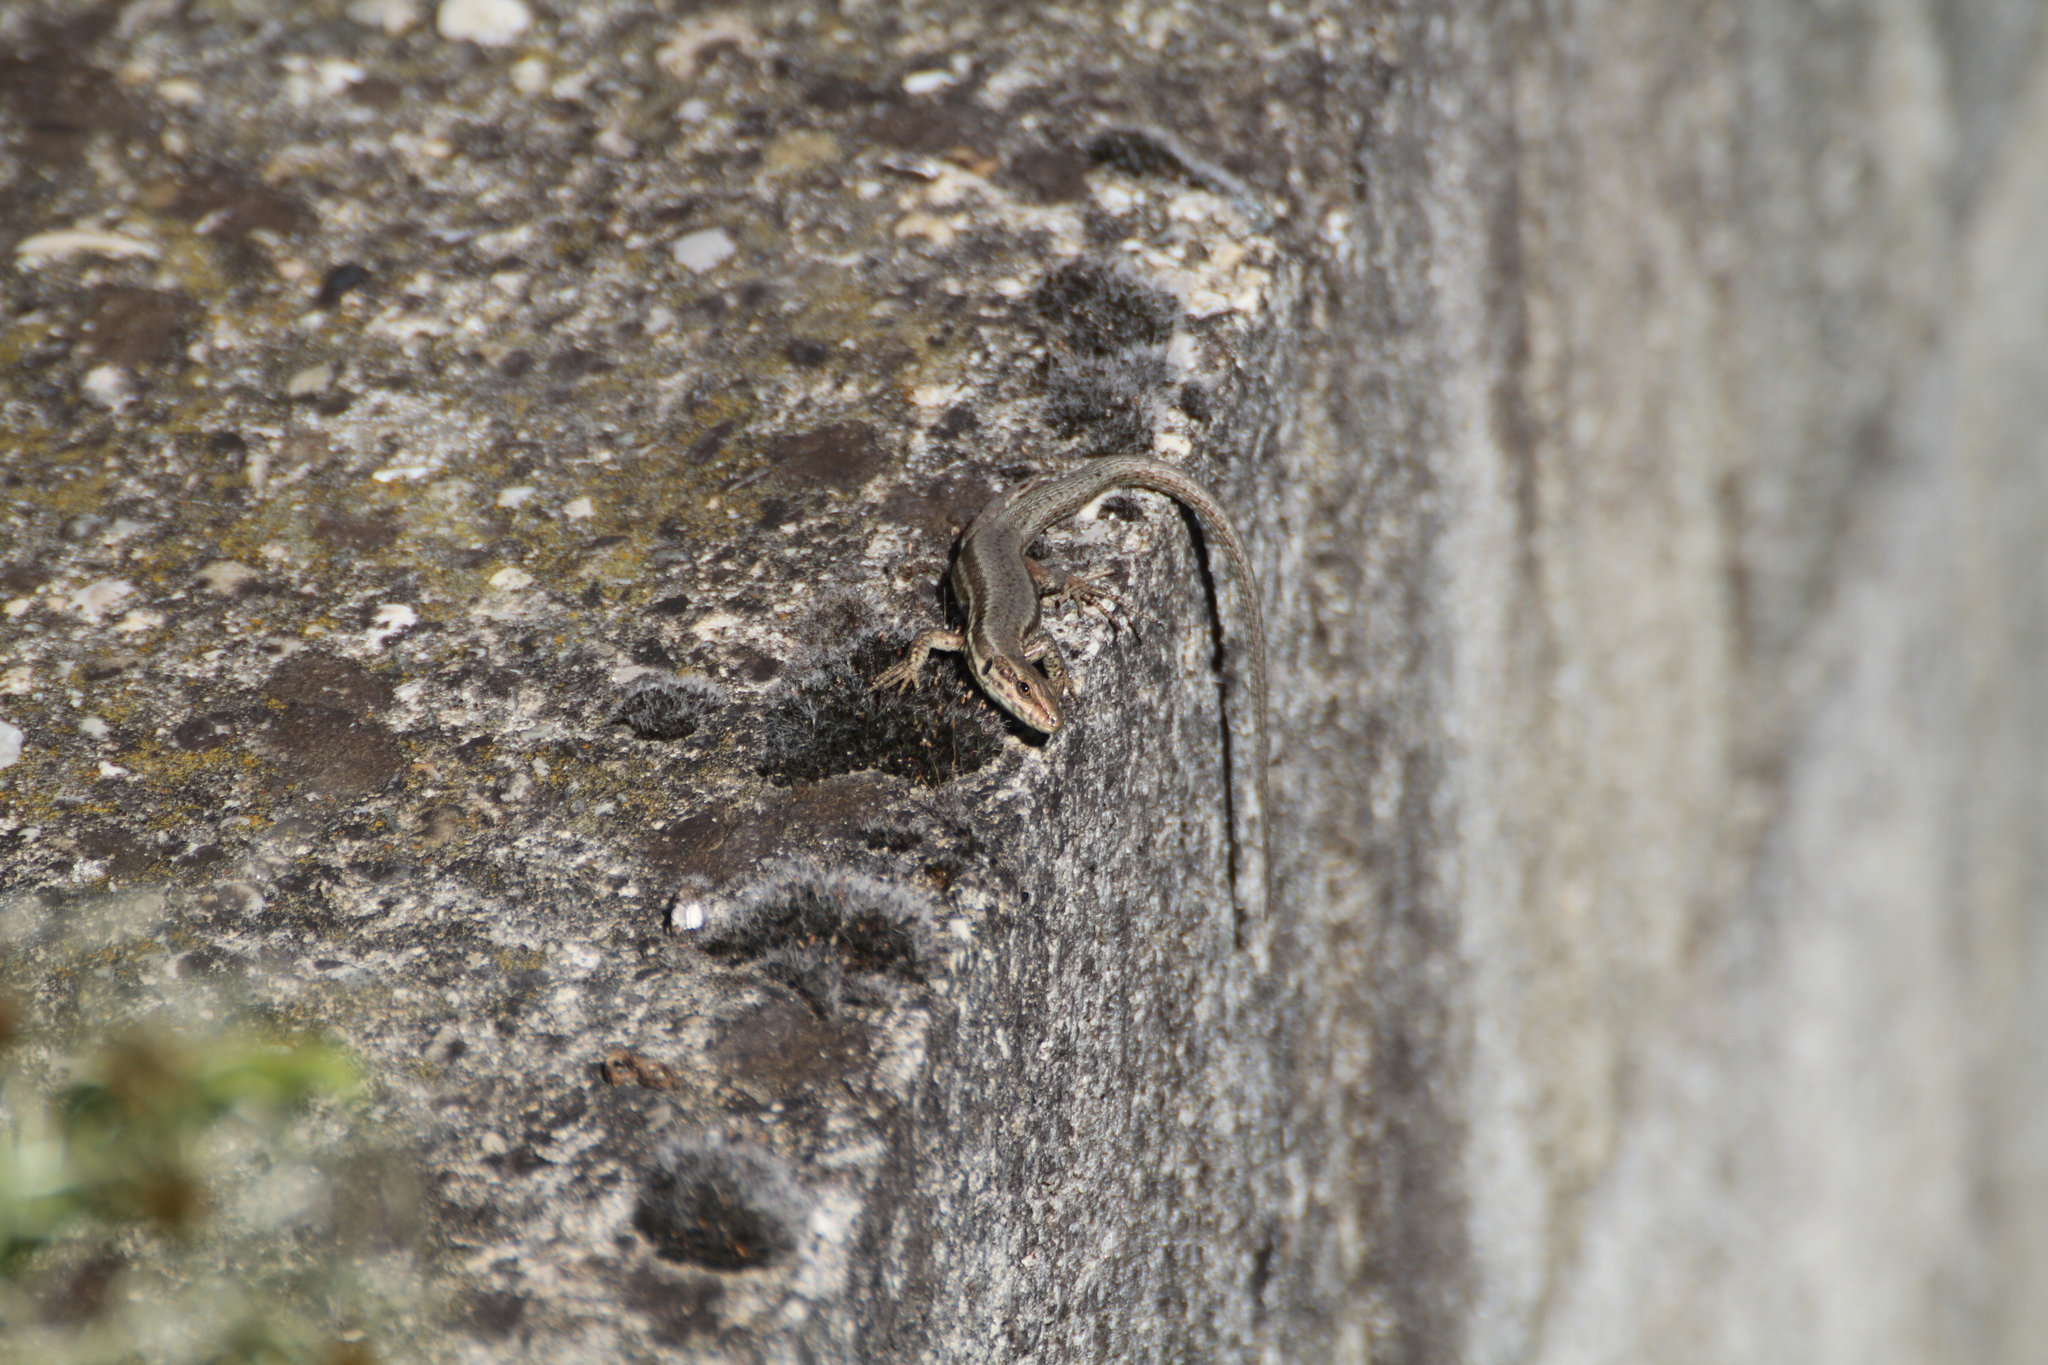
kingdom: Animalia
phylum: Chordata
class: Squamata
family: Lacertidae
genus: Podarcis
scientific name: Podarcis muralis
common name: Common wall lizard
